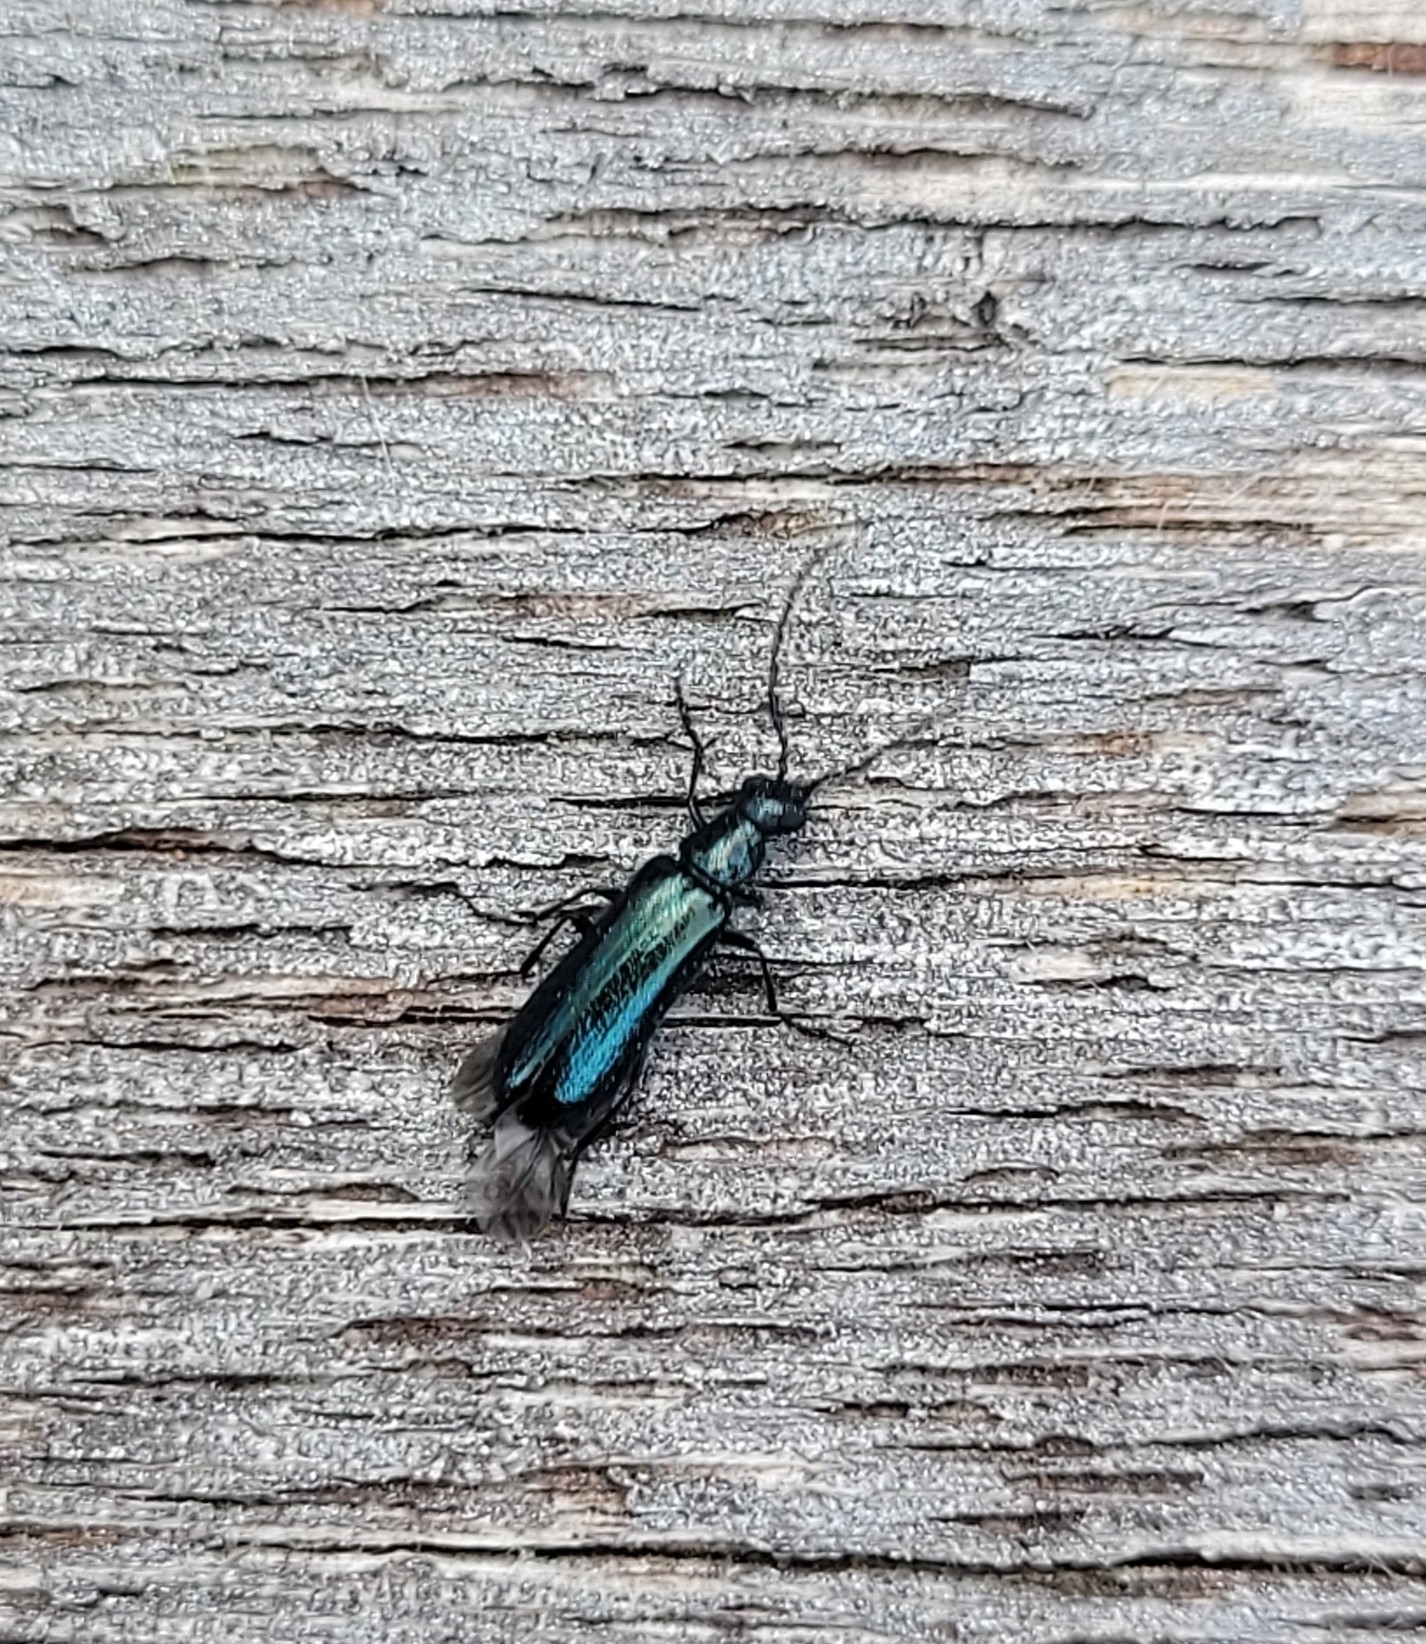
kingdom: Animalia
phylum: Arthropoda
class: Insecta
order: Coleoptera
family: Melyridae
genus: Dasytes
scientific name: Dasytes caeruleus
